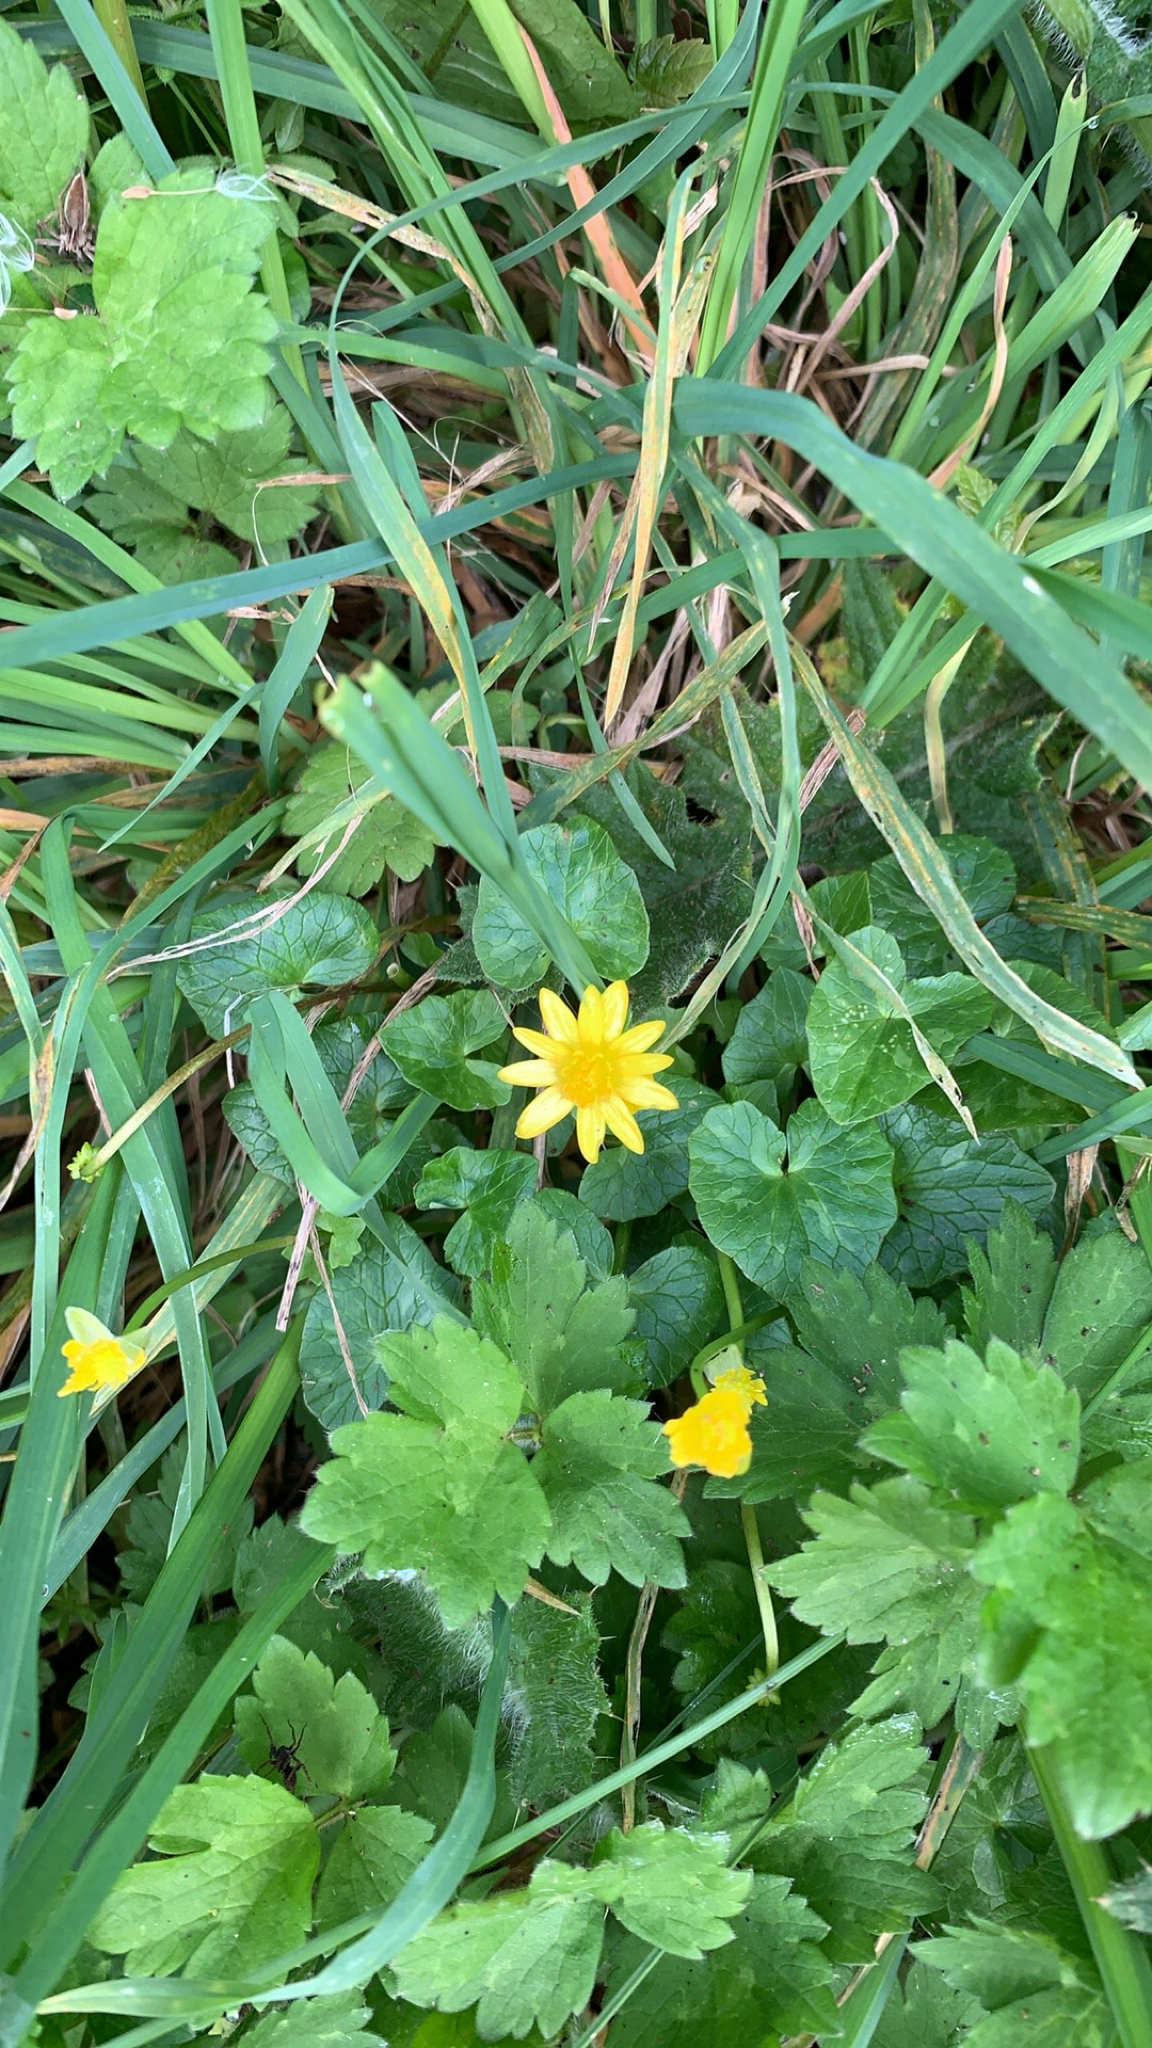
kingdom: Plantae
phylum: Tracheophyta
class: Magnoliopsida
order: Ranunculales
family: Ranunculaceae
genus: Ficaria
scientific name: Ficaria verna
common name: Lesser celandine
